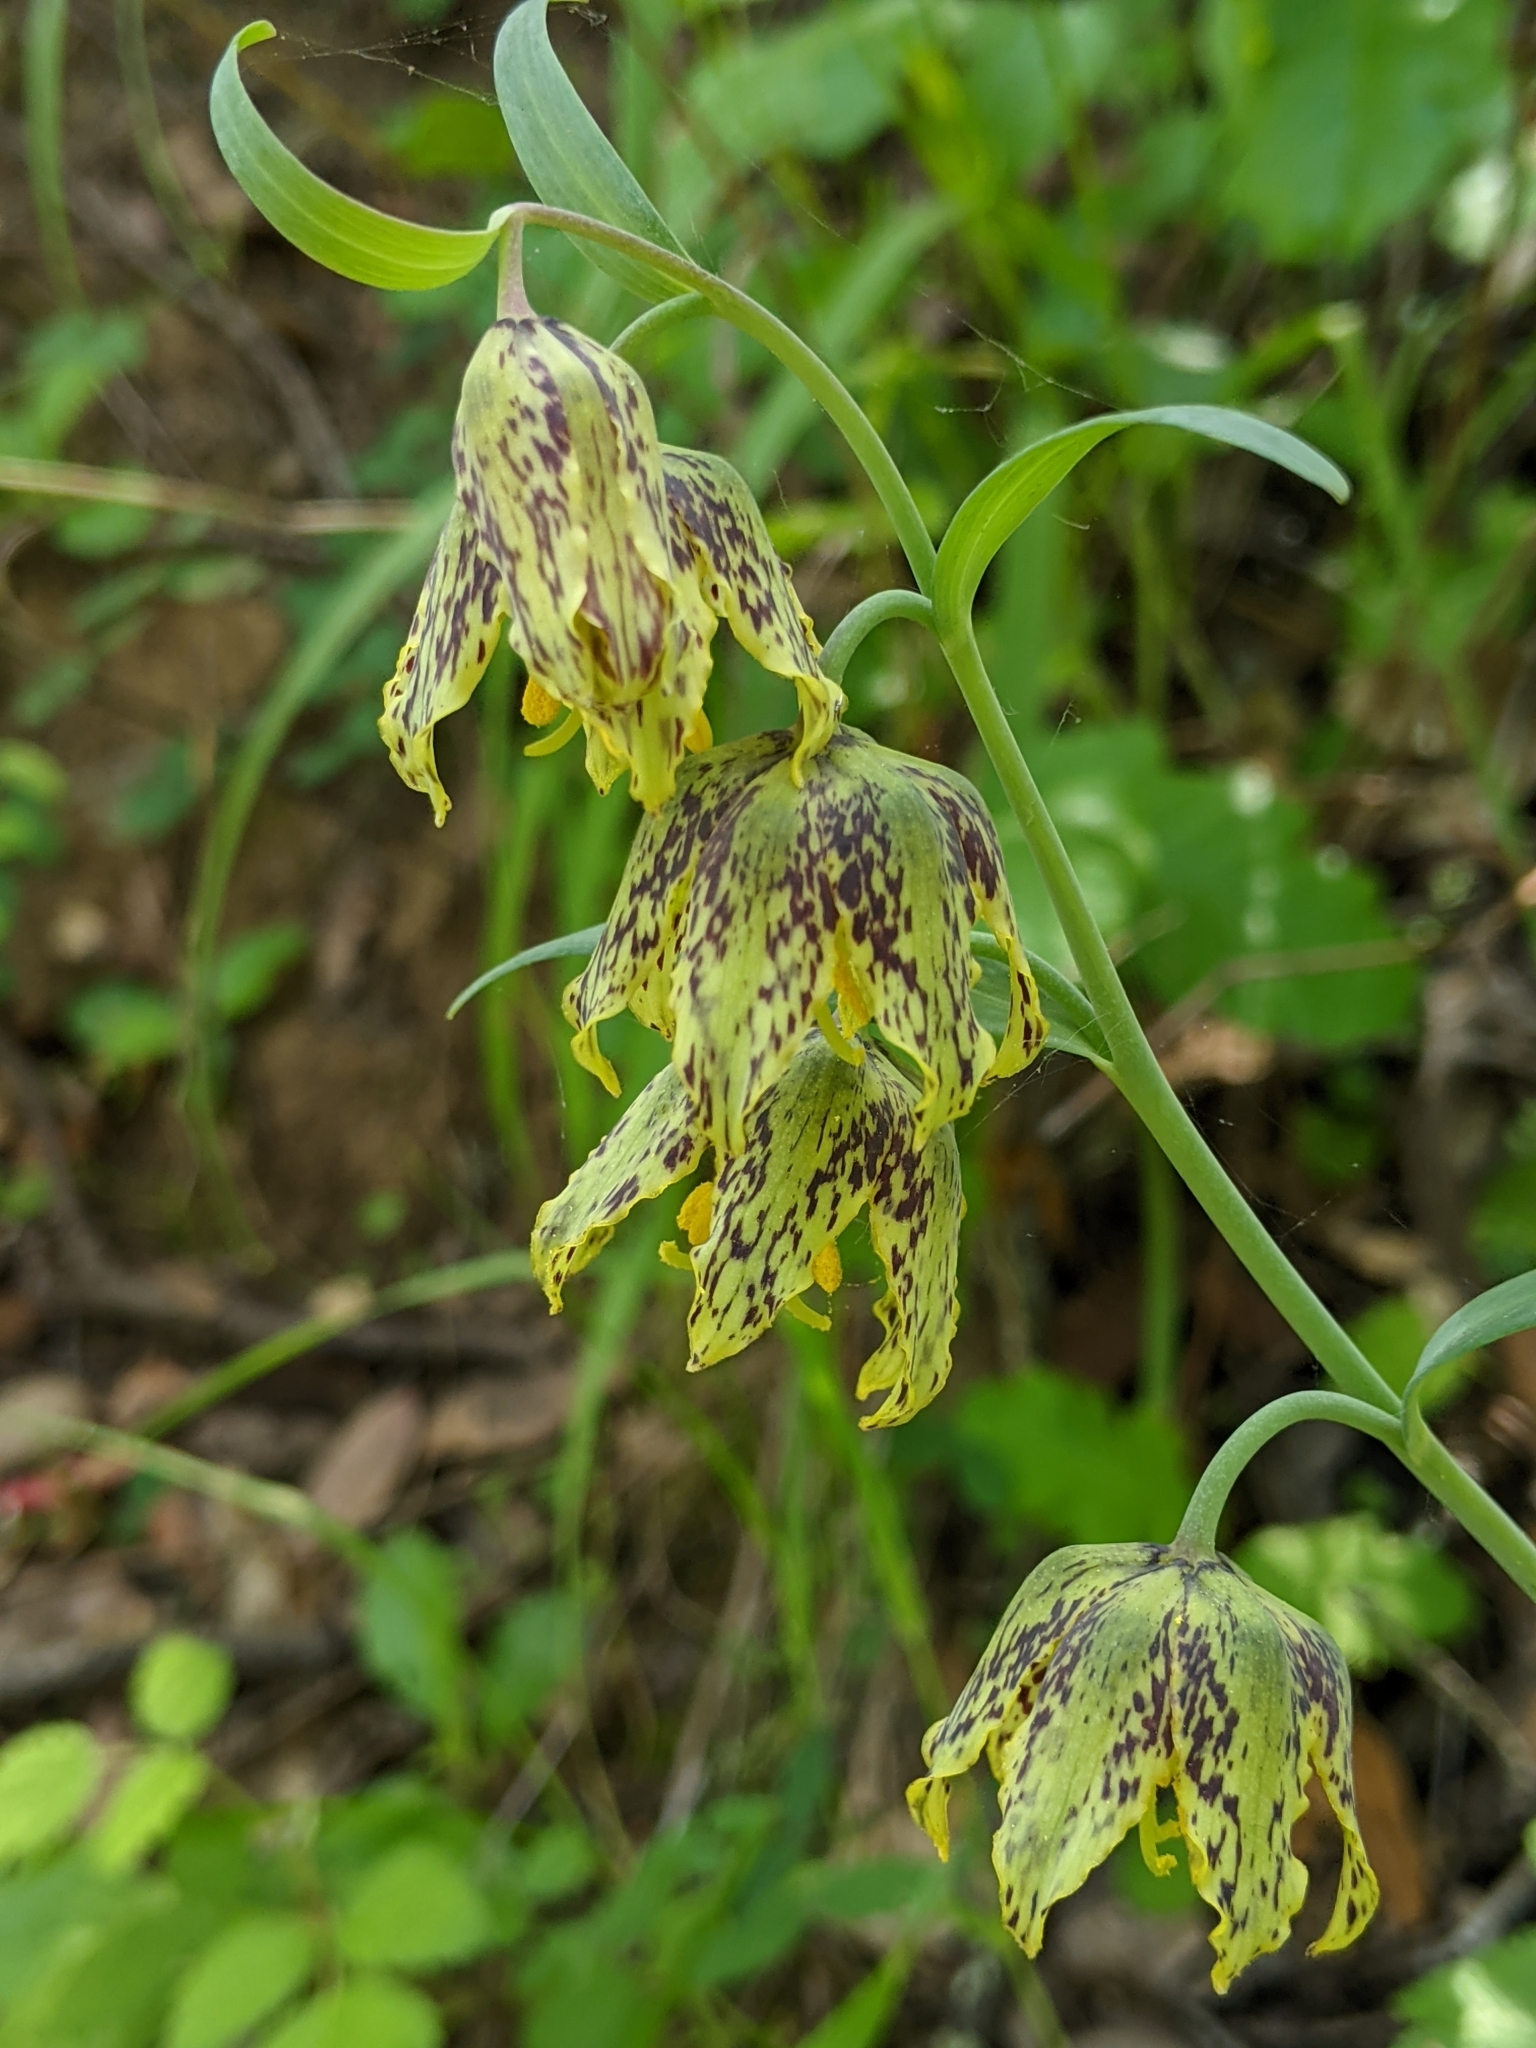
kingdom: Plantae
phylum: Tracheophyta
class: Liliopsida
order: Liliales
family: Liliaceae
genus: Fritillaria
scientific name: Fritillaria affinis
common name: Ojai fritillary
